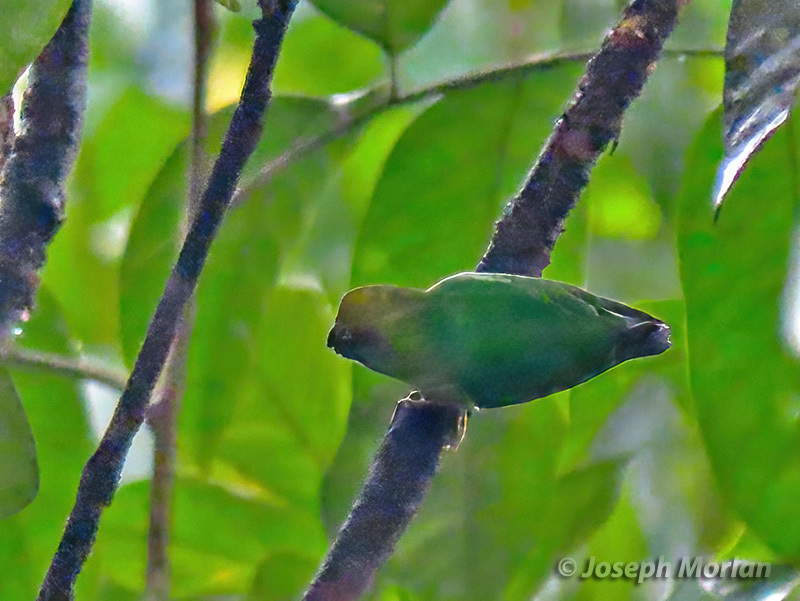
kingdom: Animalia
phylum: Chordata
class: Aves
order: Psittaciformes
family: Psittacidae
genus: Micropsitta
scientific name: Micropsitta keiensis
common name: Yellow-capped pygmy parrot
